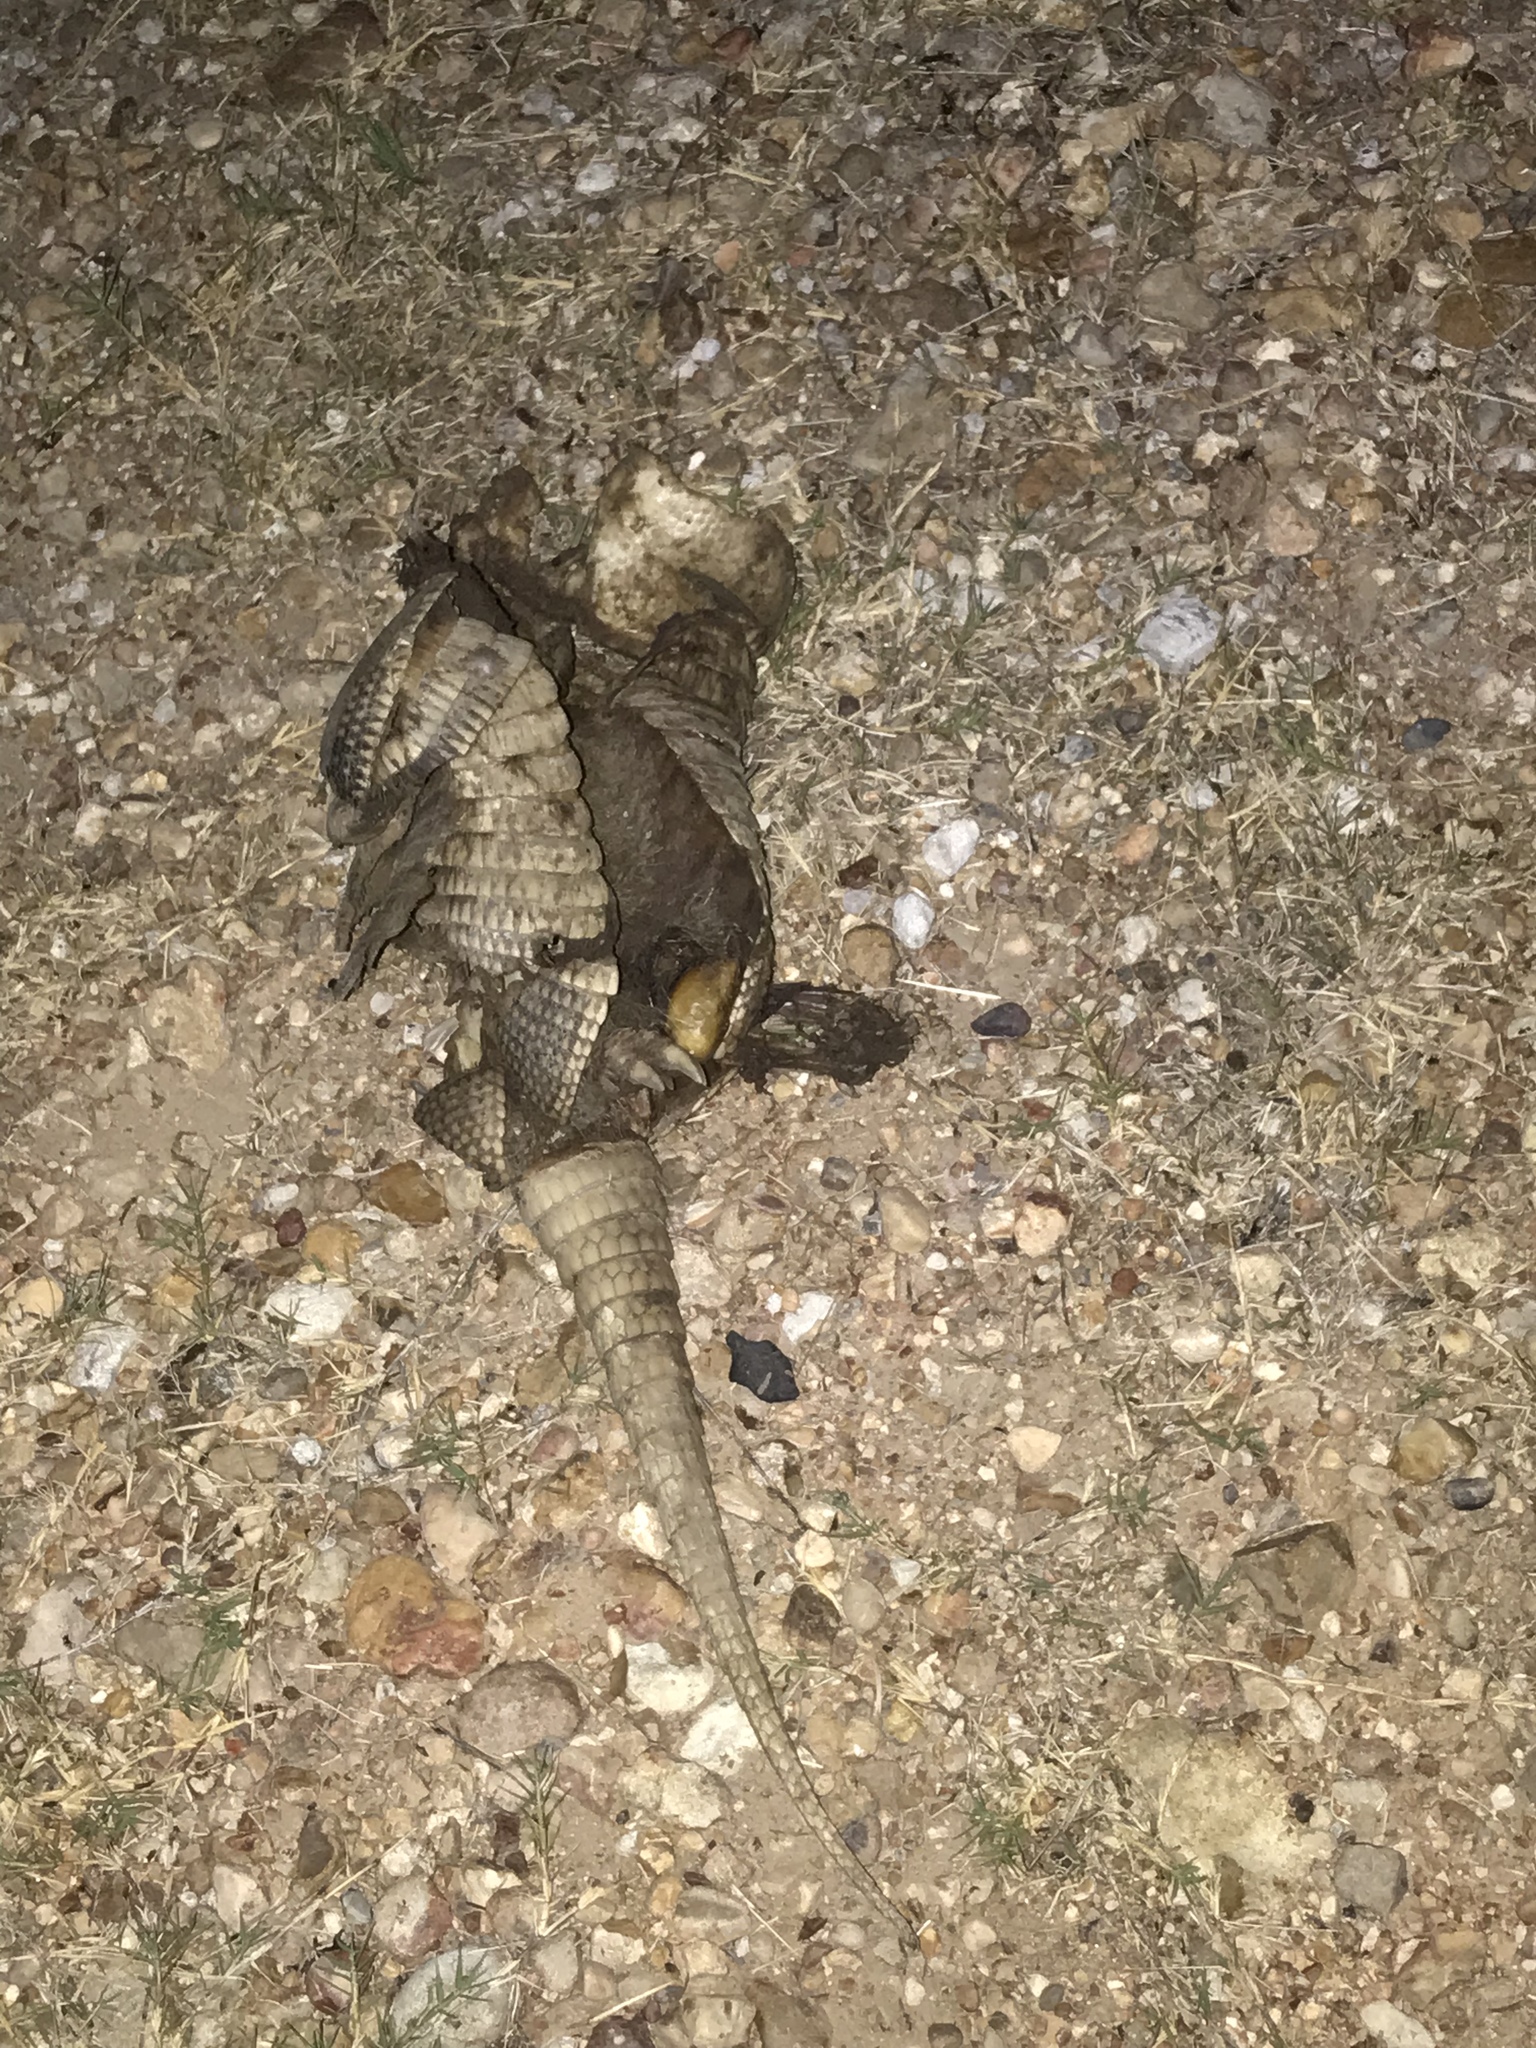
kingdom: Animalia
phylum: Chordata
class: Mammalia
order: Cingulata
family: Dasypodidae
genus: Dasypus
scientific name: Dasypus novemcinctus
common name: Nine-banded armadillo
